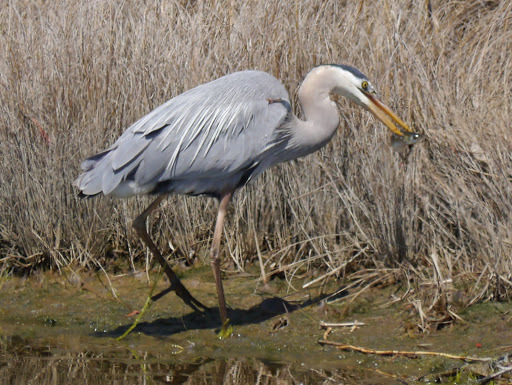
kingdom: Animalia
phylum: Chordata
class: Aves
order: Pelecaniformes
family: Ardeidae
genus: Ardea
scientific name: Ardea herodias
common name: Great blue heron
